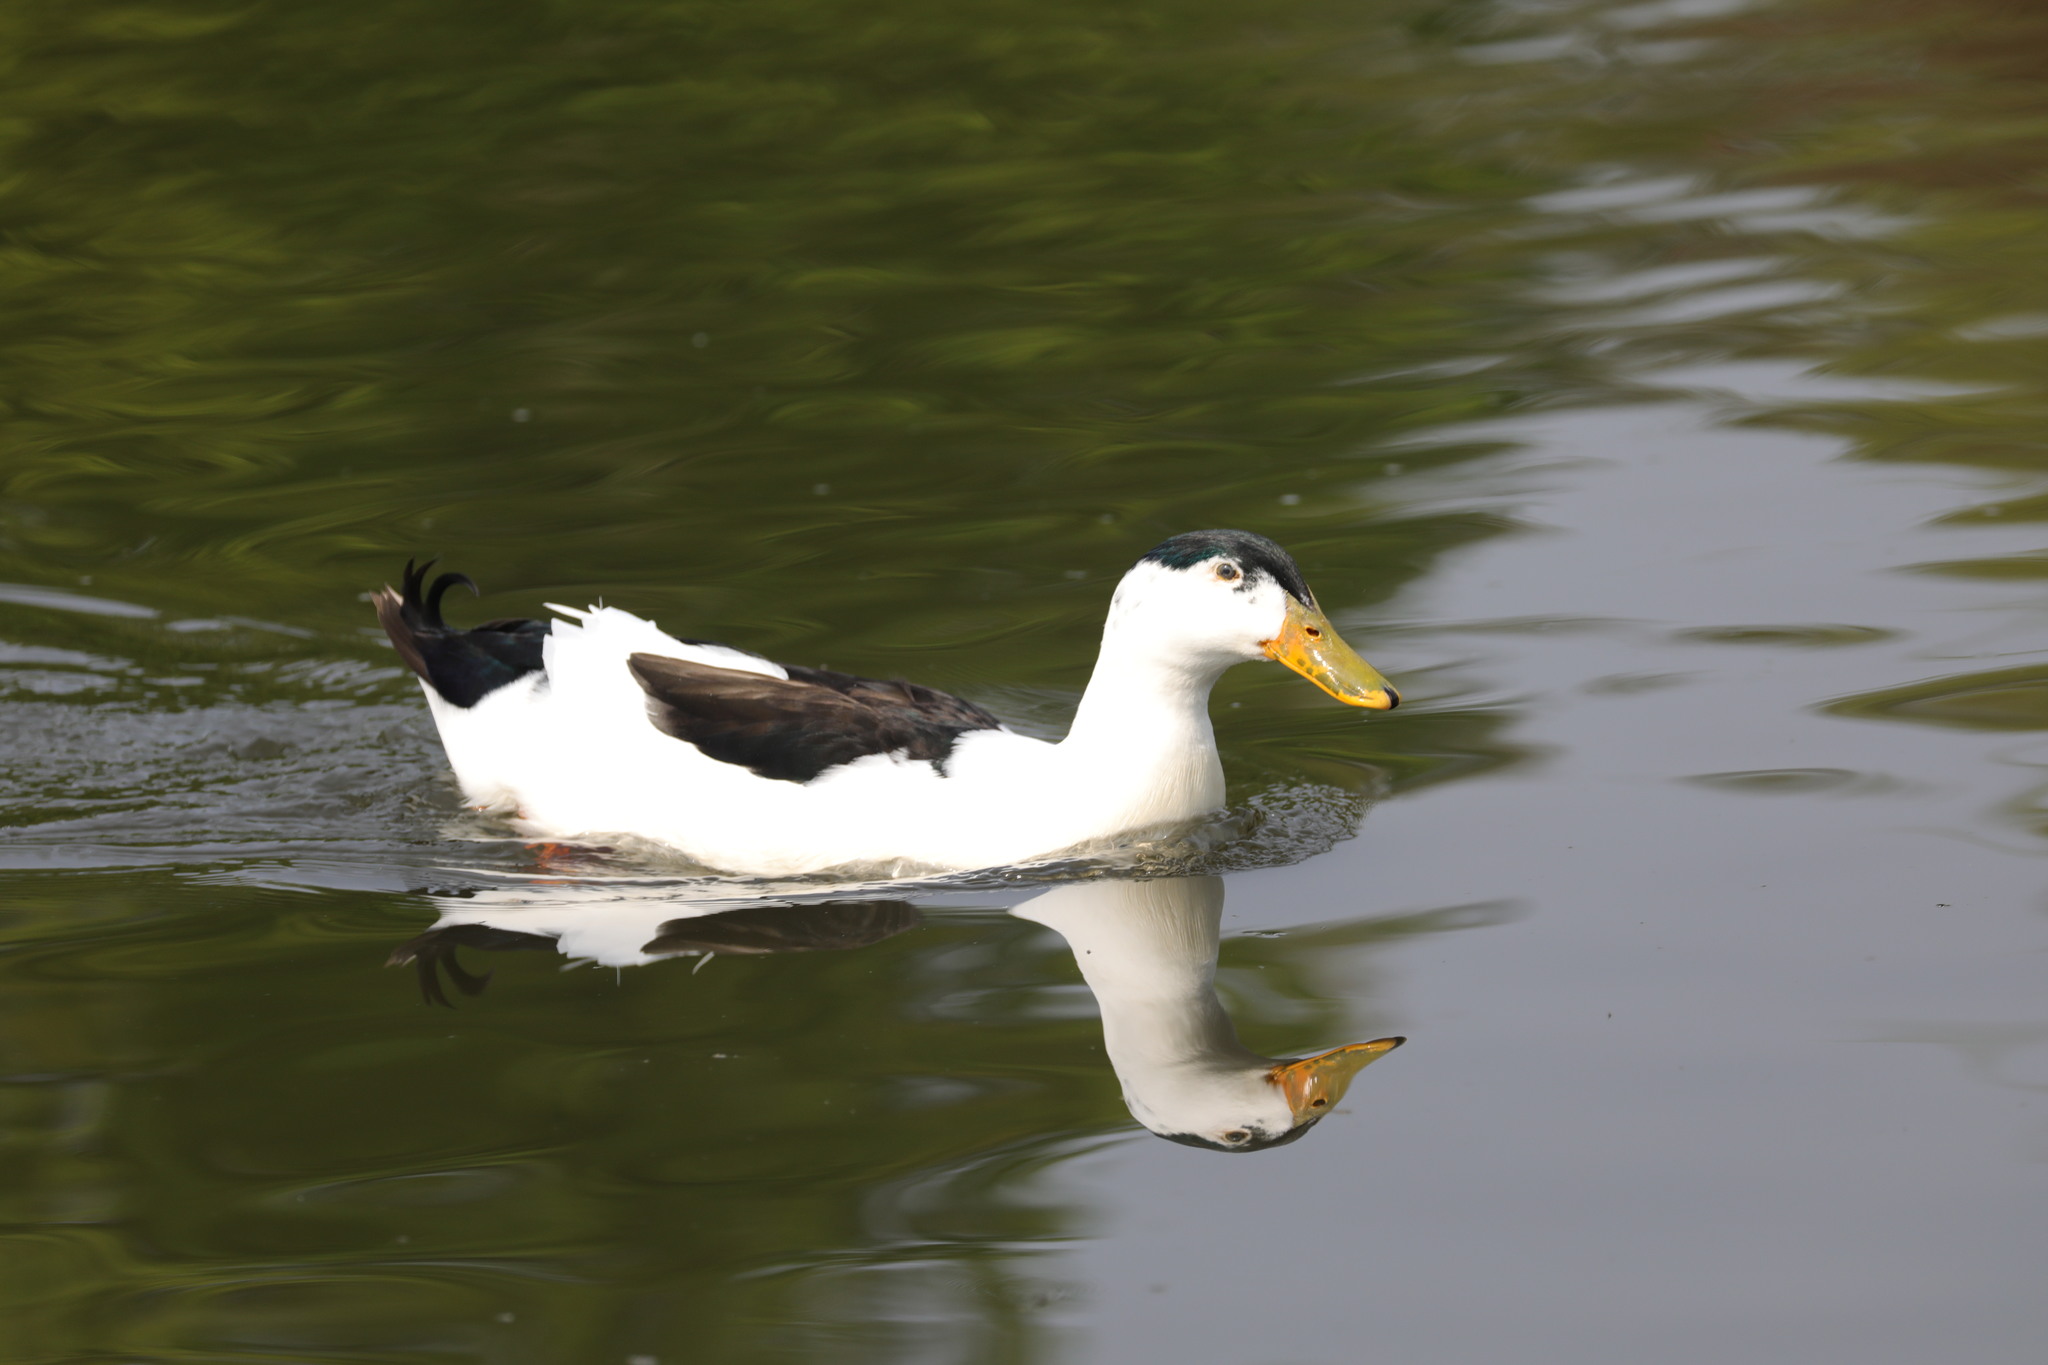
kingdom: Animalia
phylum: Chordata
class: Aves
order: Anseriformes
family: Anatidae
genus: Anas
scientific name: Anas platyrhynchos
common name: Mallard
